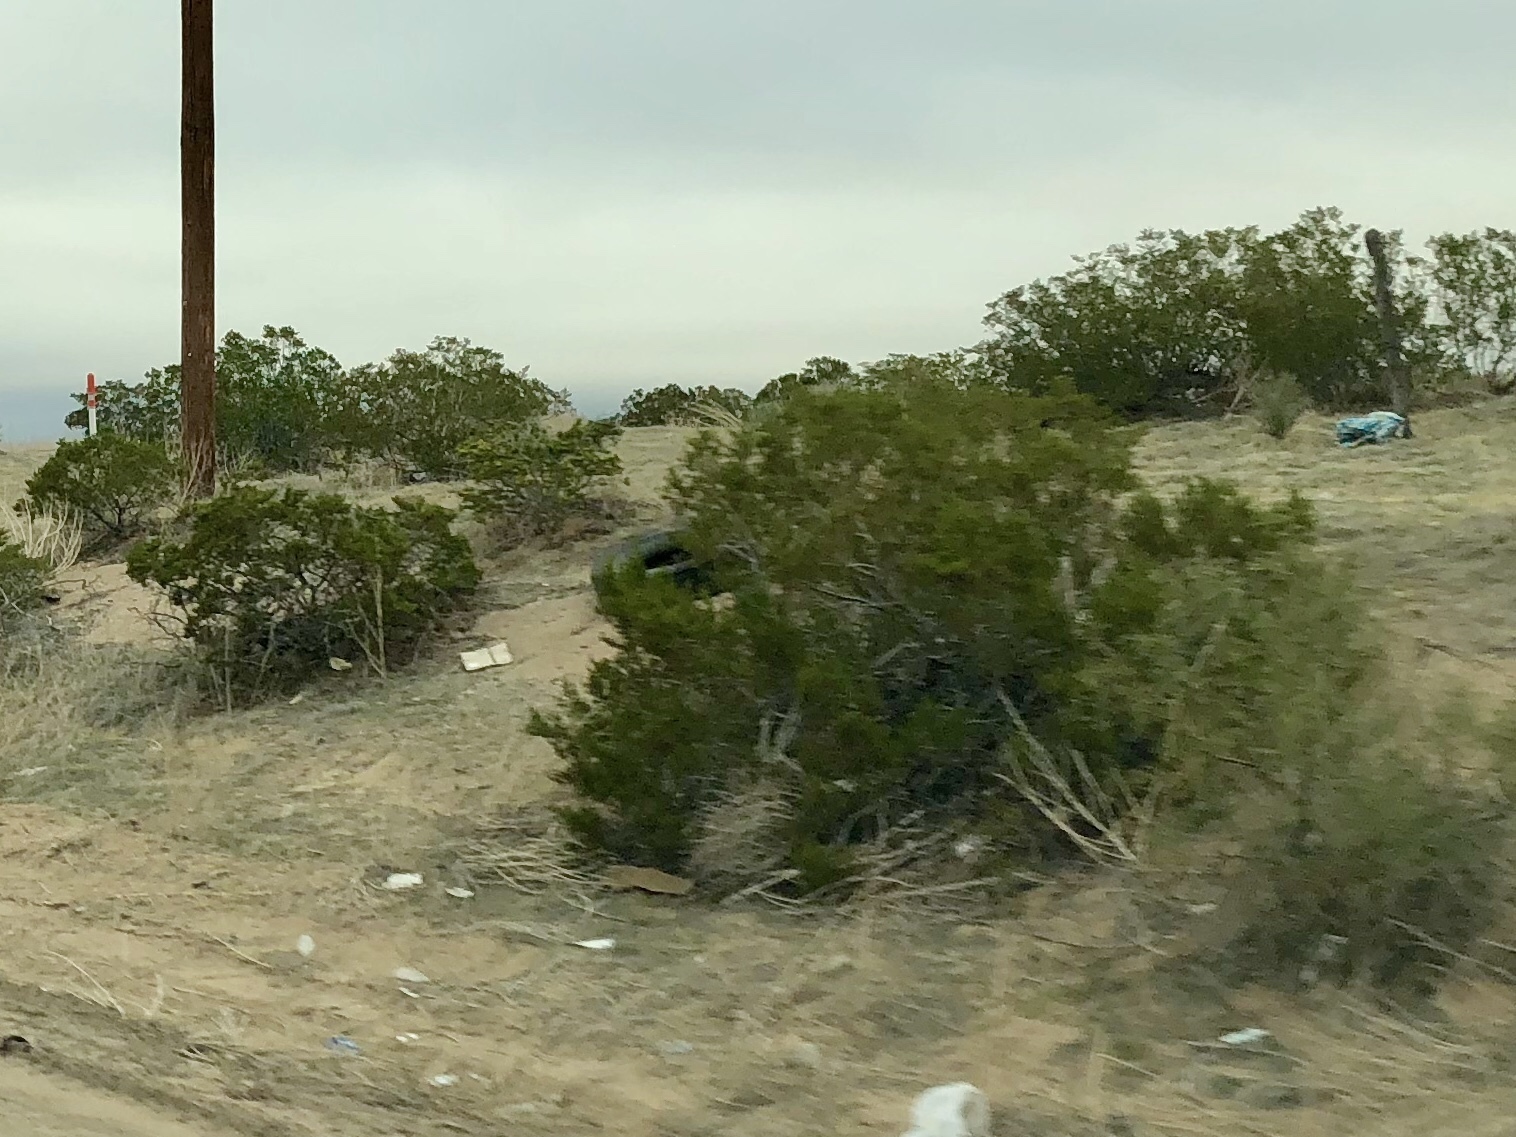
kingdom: Plantae
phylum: Tracheophyta
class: Magnoliopsida
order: Zygophyllales
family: Zygophyllaceae
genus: Larrea
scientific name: Larrea tridentata
